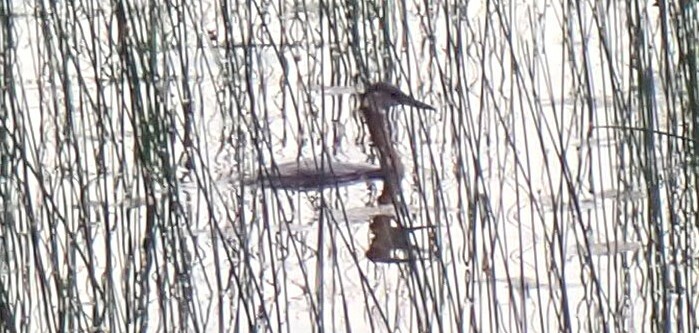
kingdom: Animalia
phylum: Chordata
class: Aves
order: Podicipediformes
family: Podicipedidae
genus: Podiceps
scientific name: Podiceps grisegena
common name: Red-necked grebe
